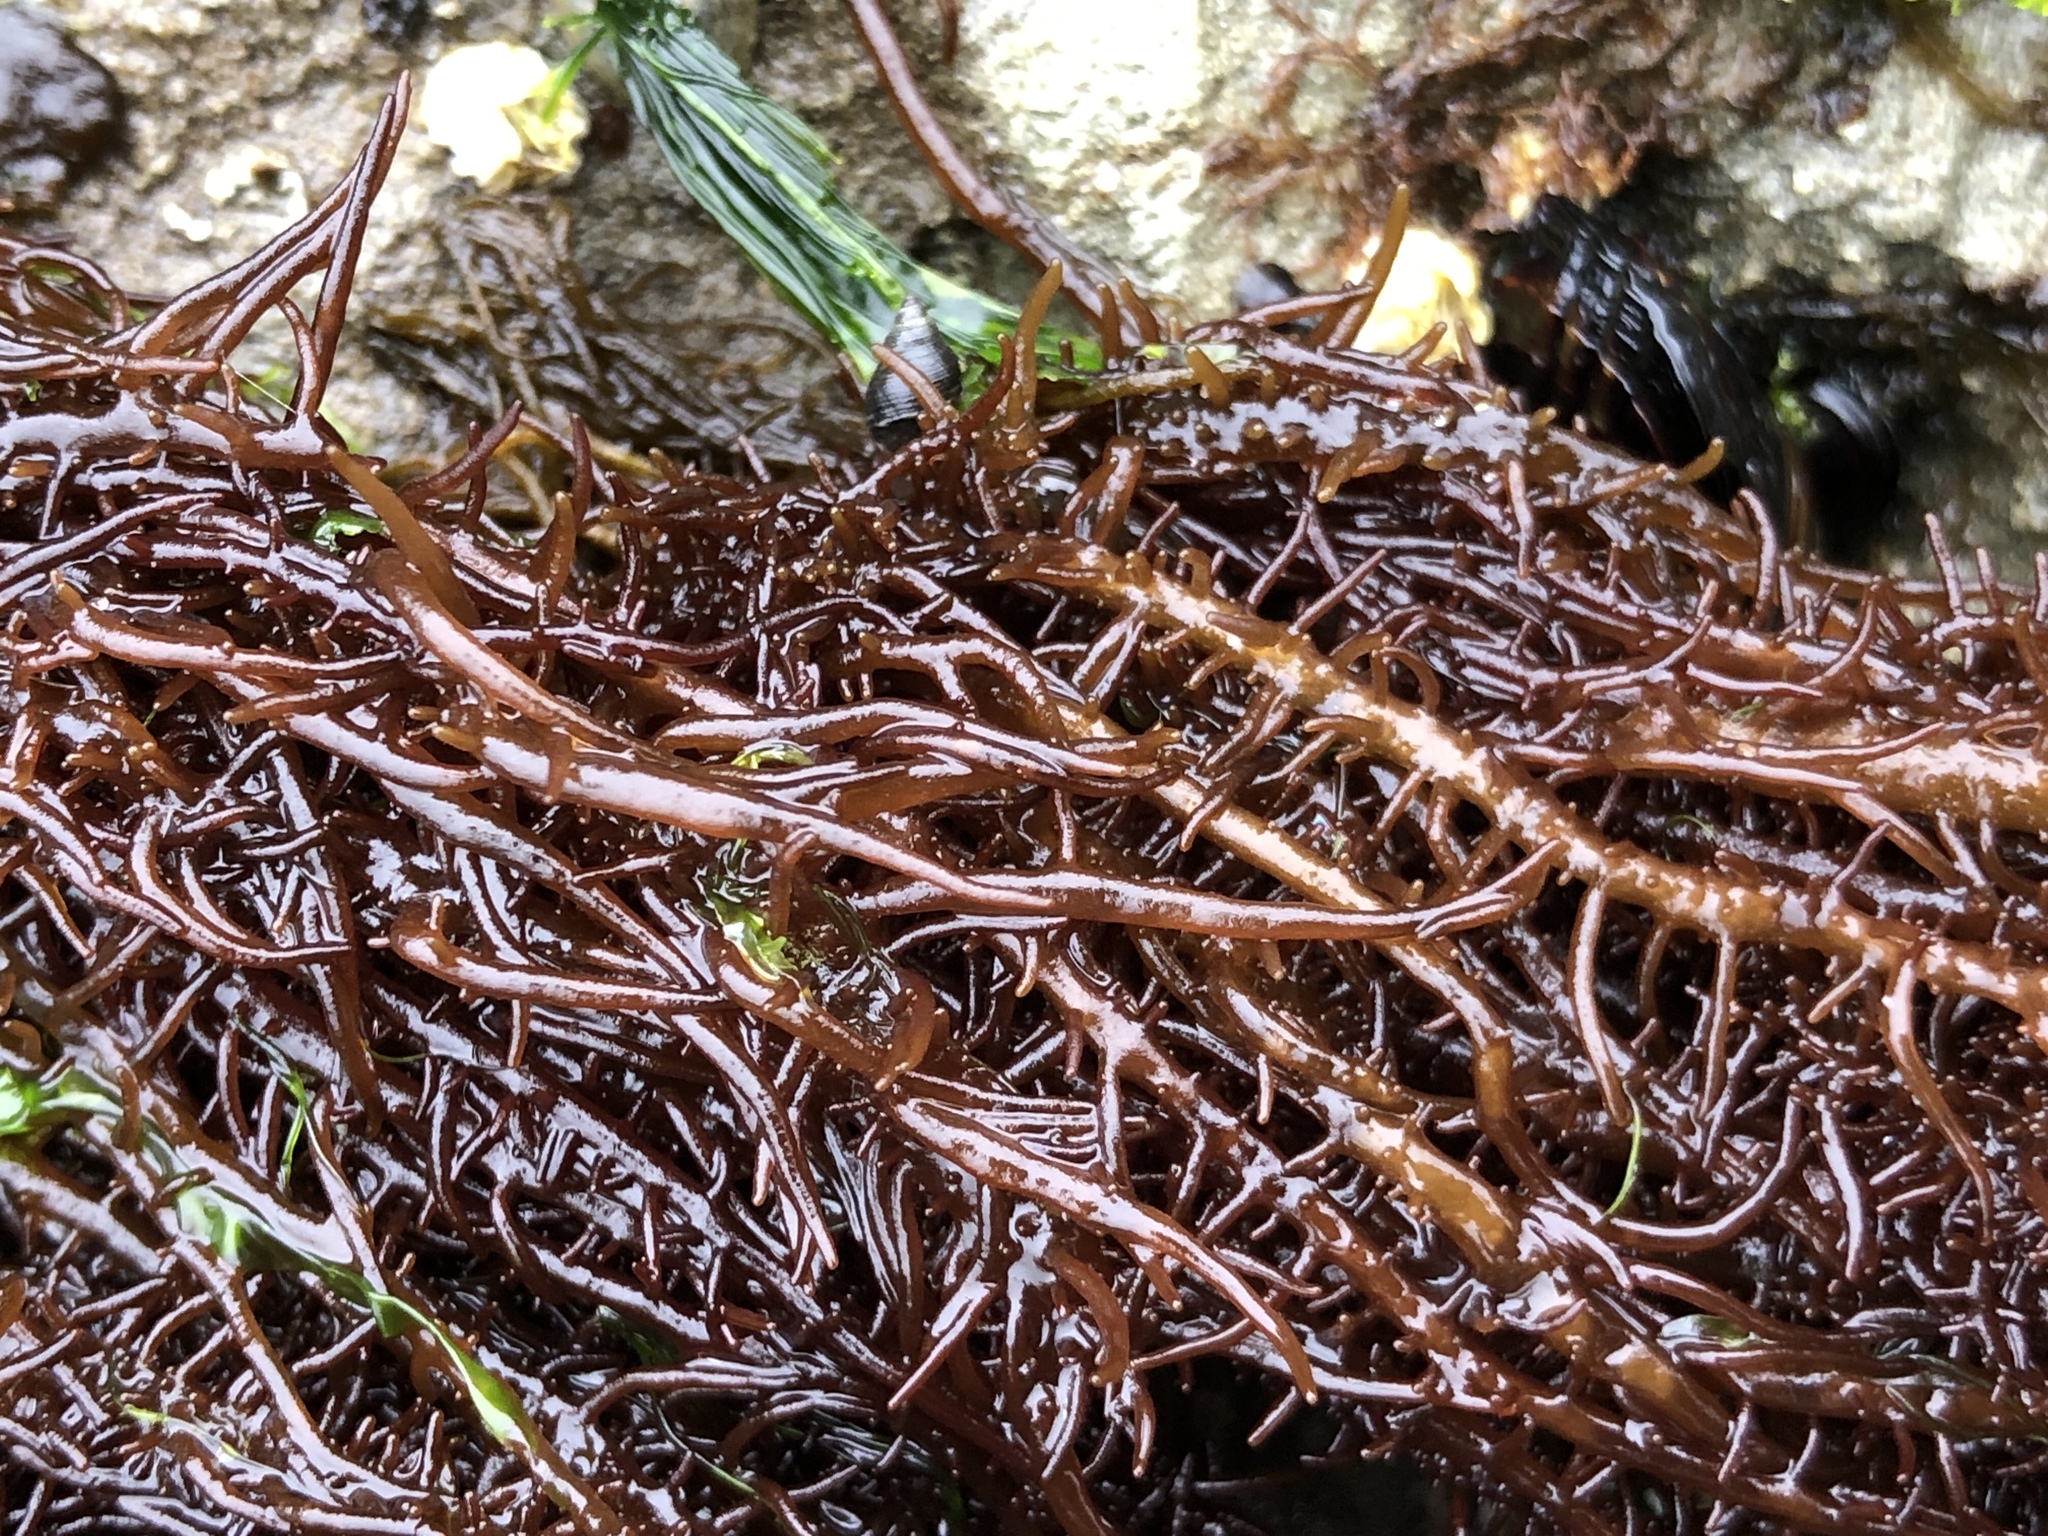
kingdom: Plantae
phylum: Rhodophyta
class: Florideophyceae
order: Nemaliales
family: Liagoraceae
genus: Cumagloia
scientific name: Cumagloia andersonii
